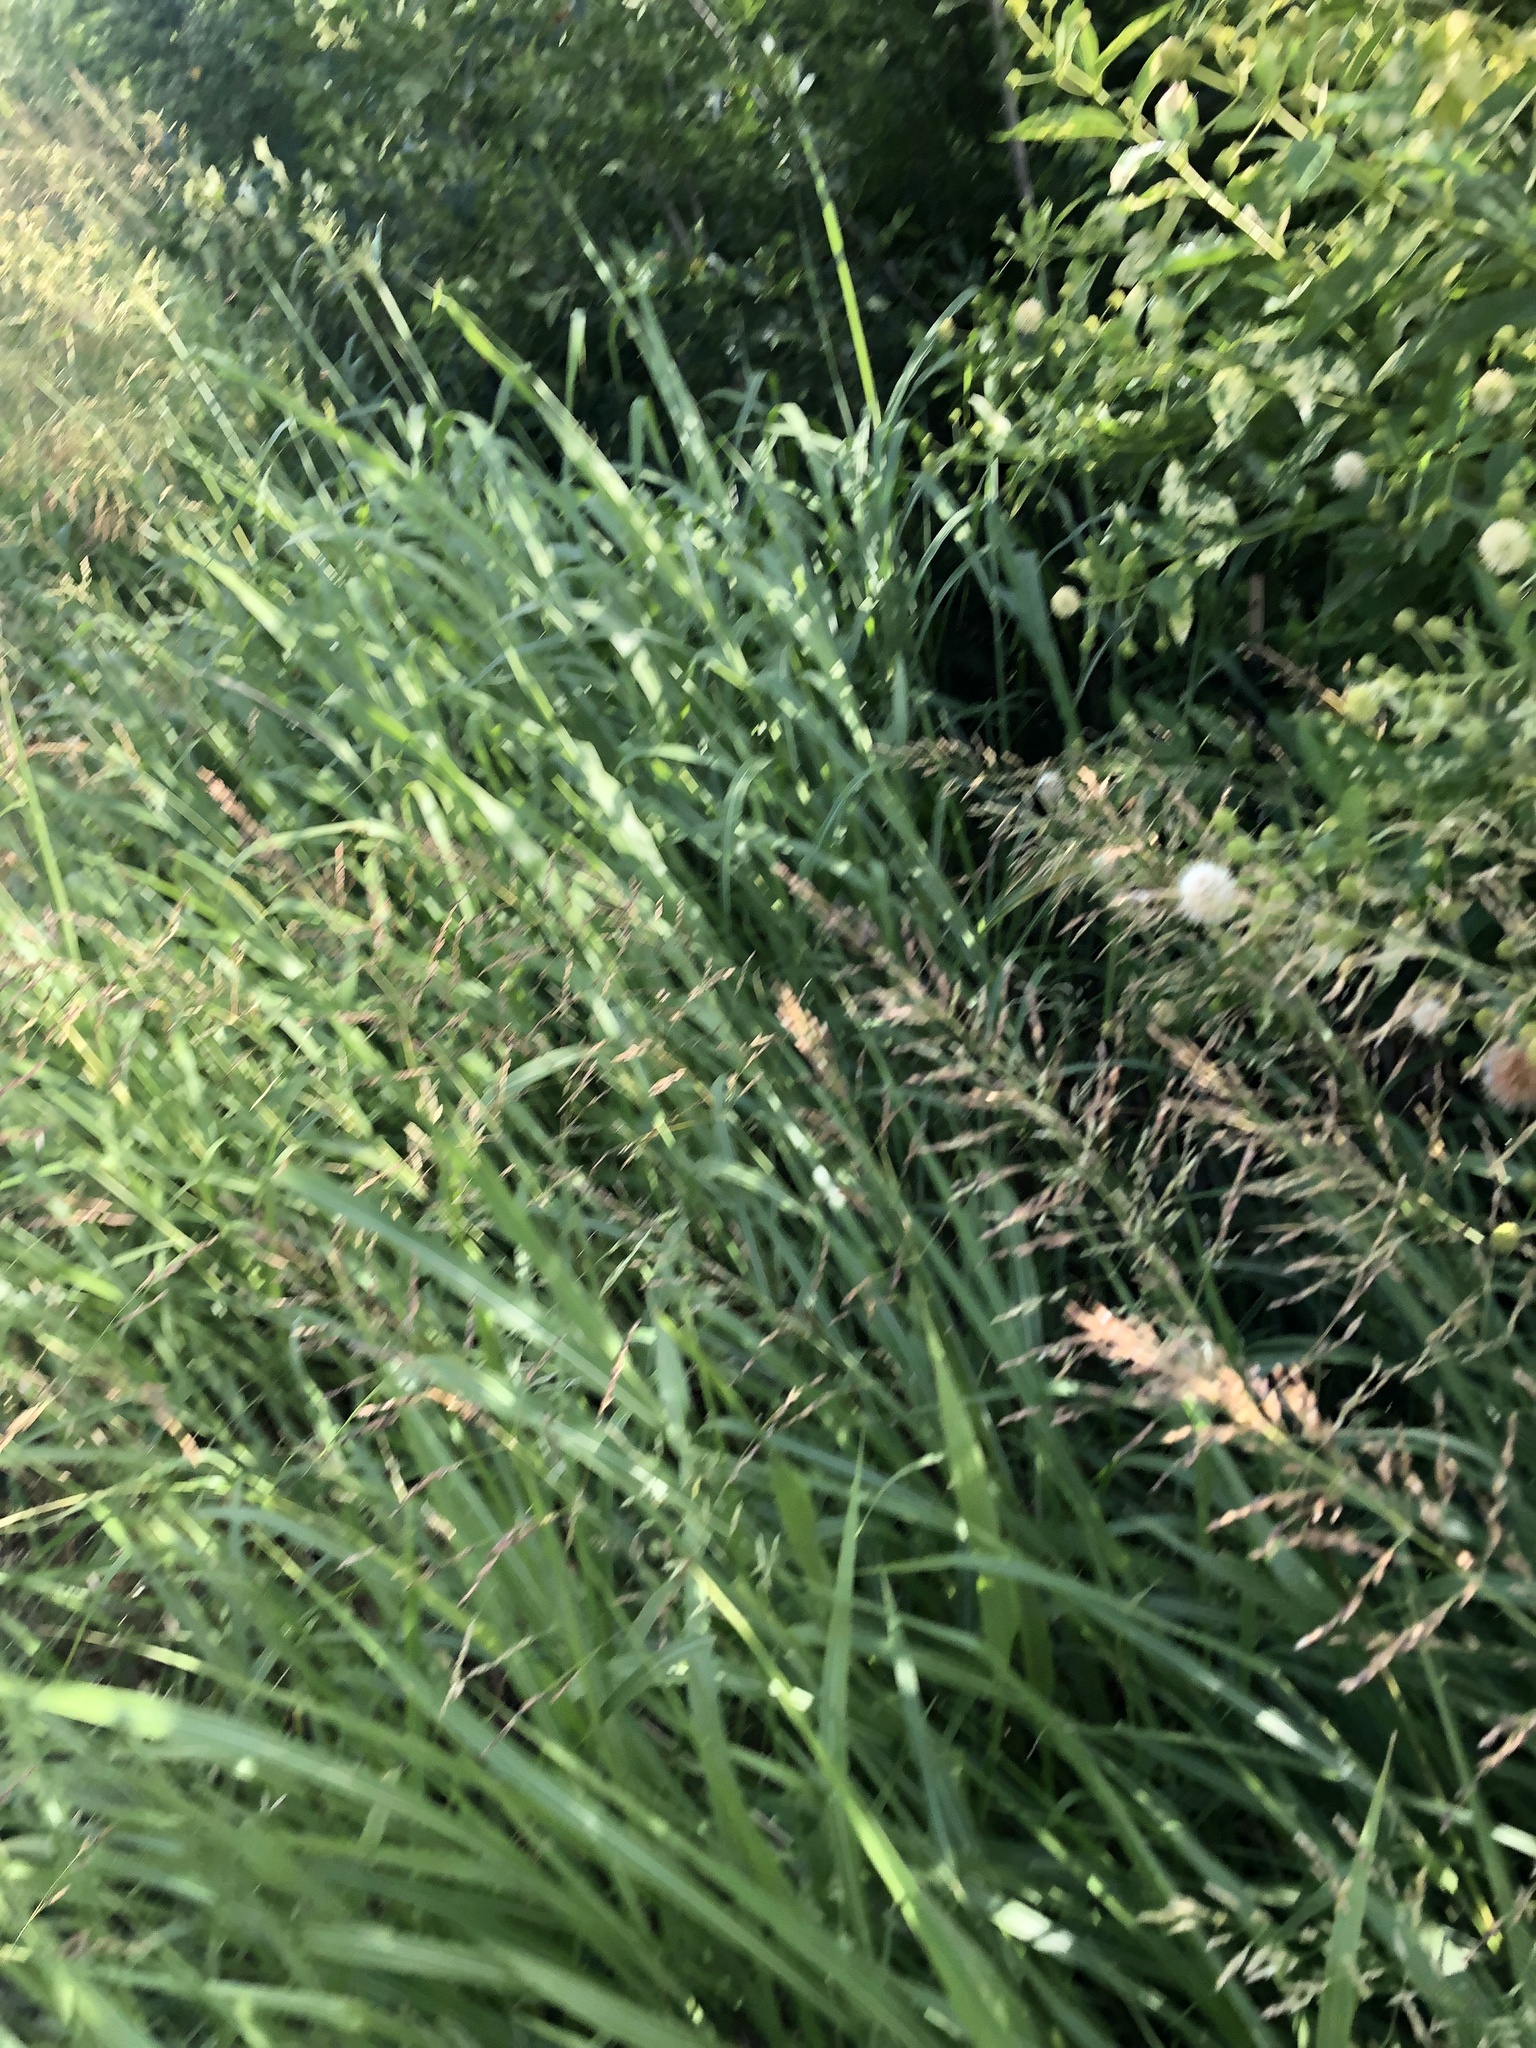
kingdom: Plantae
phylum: Tracheophyta
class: Magnoliopsida
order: Gentianales
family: Rubiaceae
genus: Cephalanthus
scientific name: Cephalanthus occidentalis
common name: Button-willow
